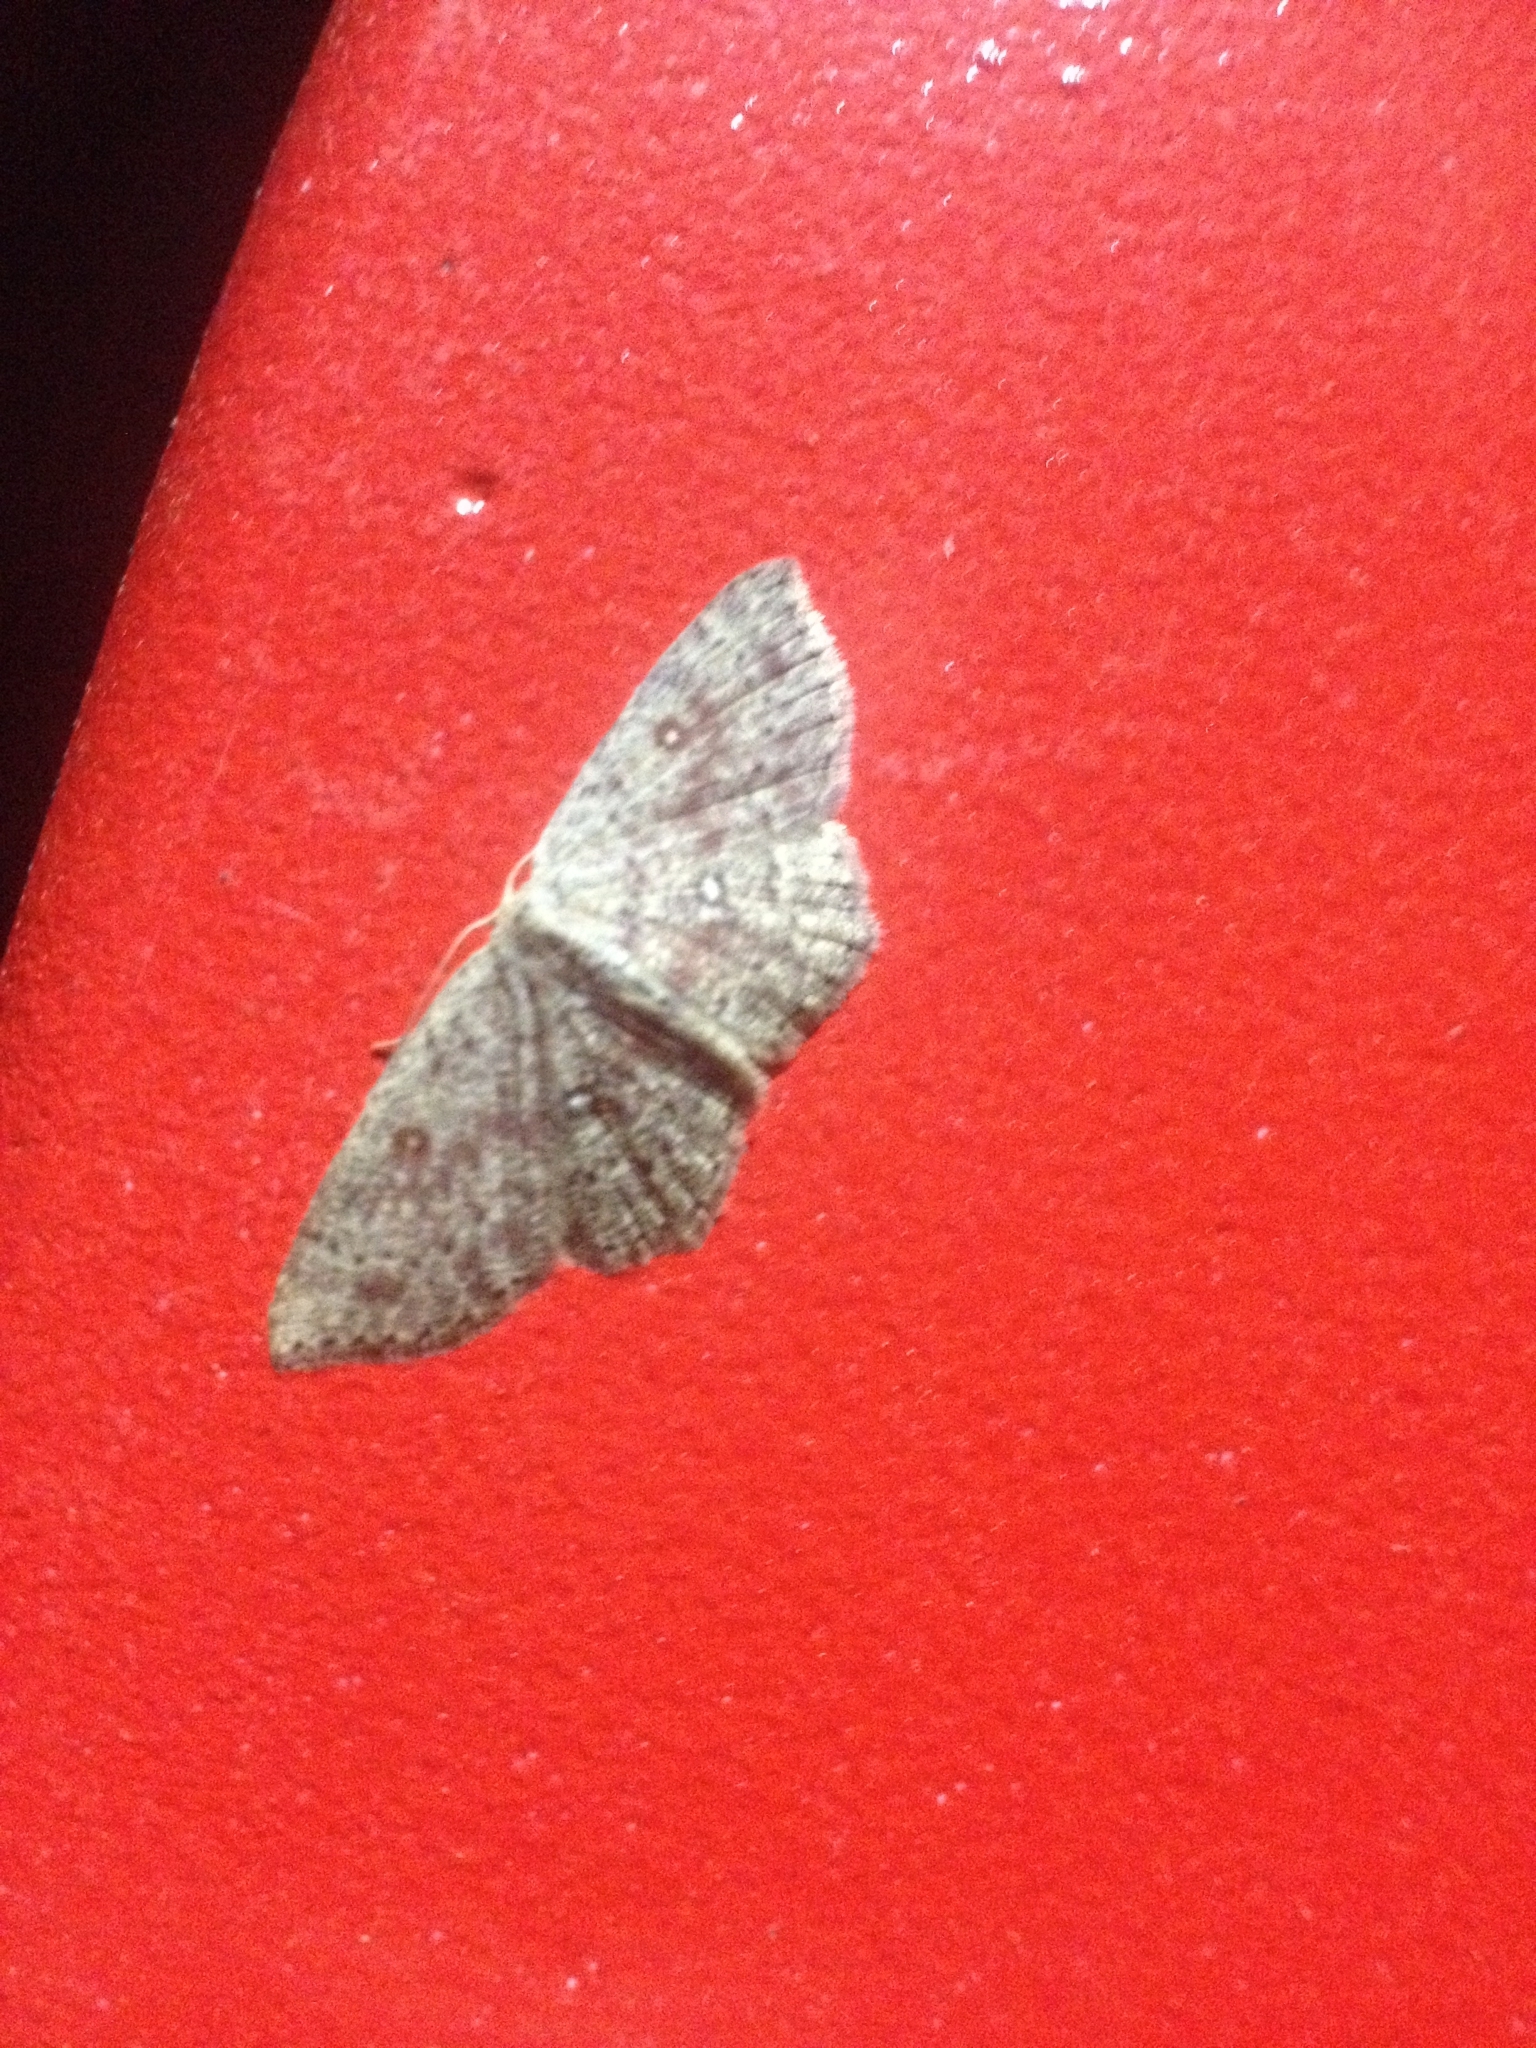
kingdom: Animalia
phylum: Arthropoda
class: Insecta
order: Lepidoptera
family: Geometridae
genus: Cyclophora
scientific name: Cyclophora pendularia
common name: Dingy mocha
